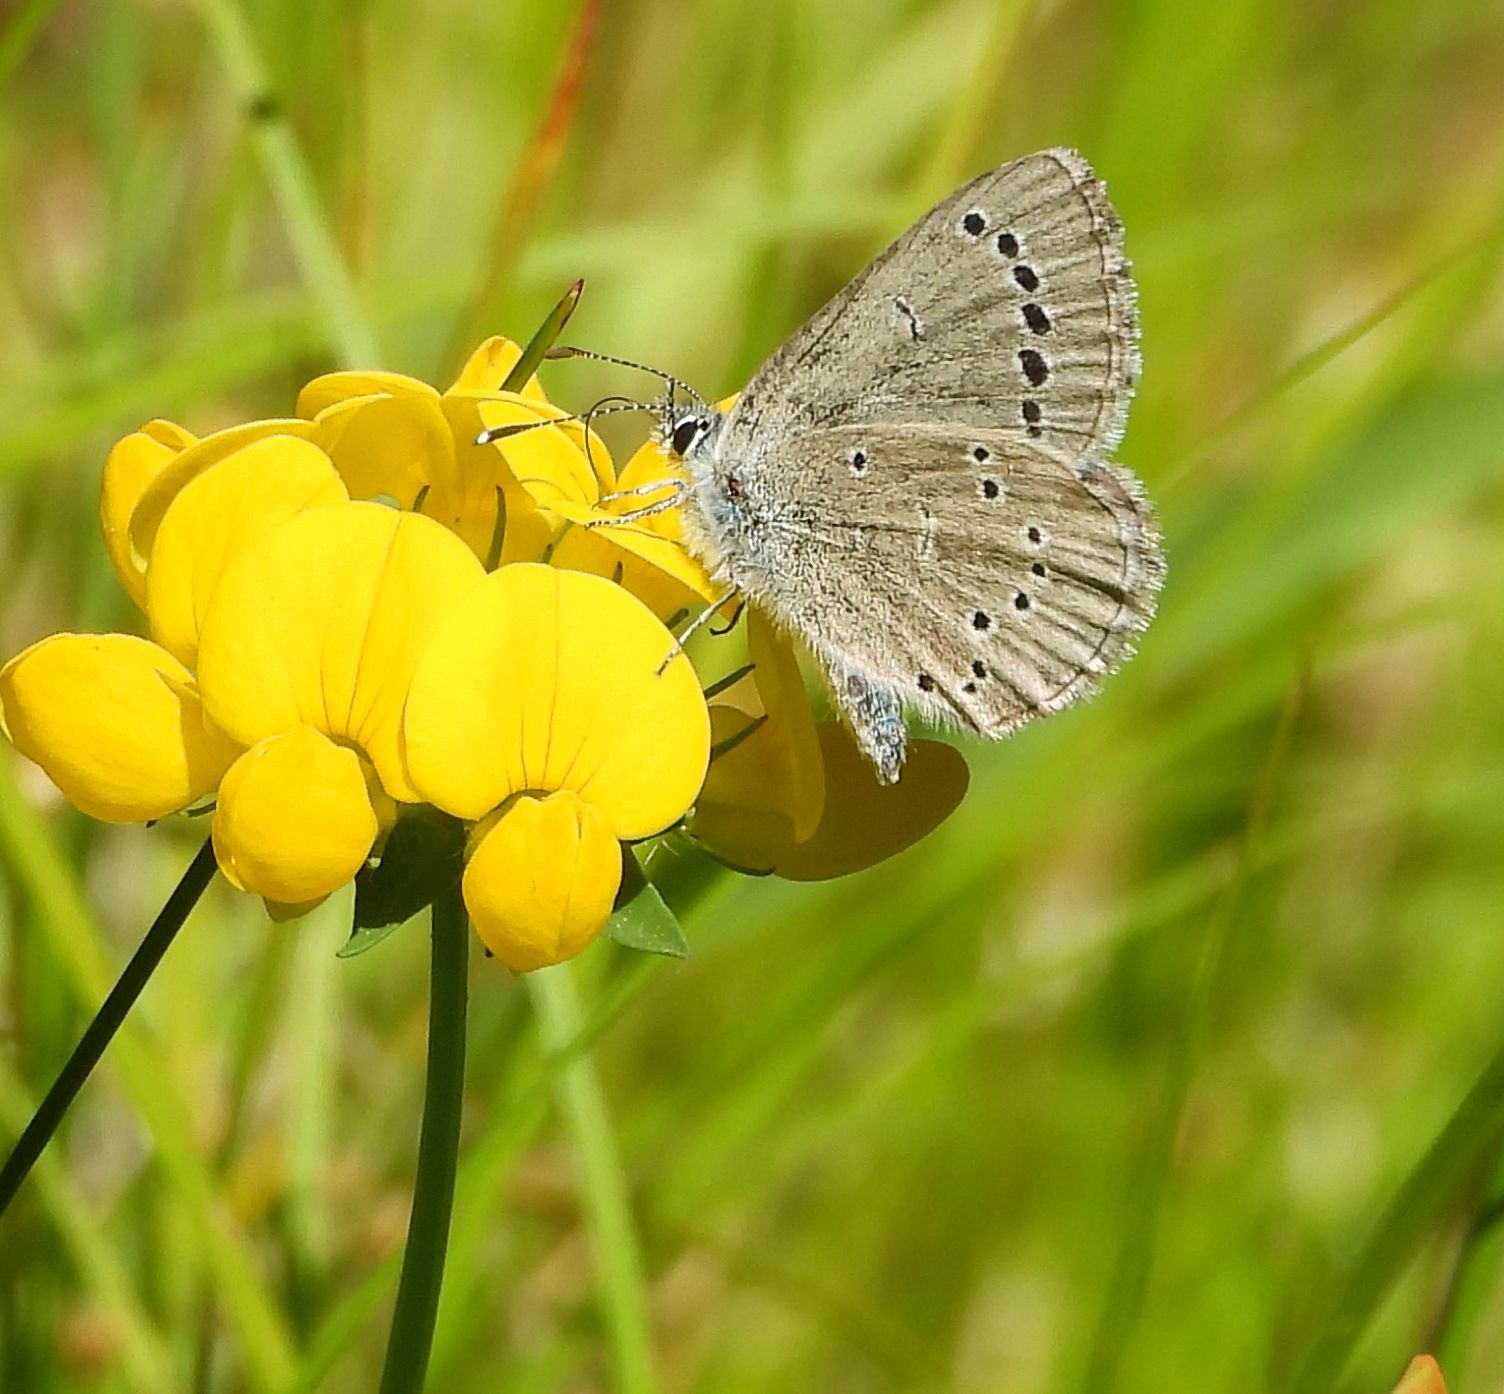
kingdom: Animalia
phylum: Arthropoda
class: Insecta
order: Lepidoptera
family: Lycaenidae
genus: Glaucopsyche
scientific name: Glaucopsyche lygdamus
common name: Silvery blue
